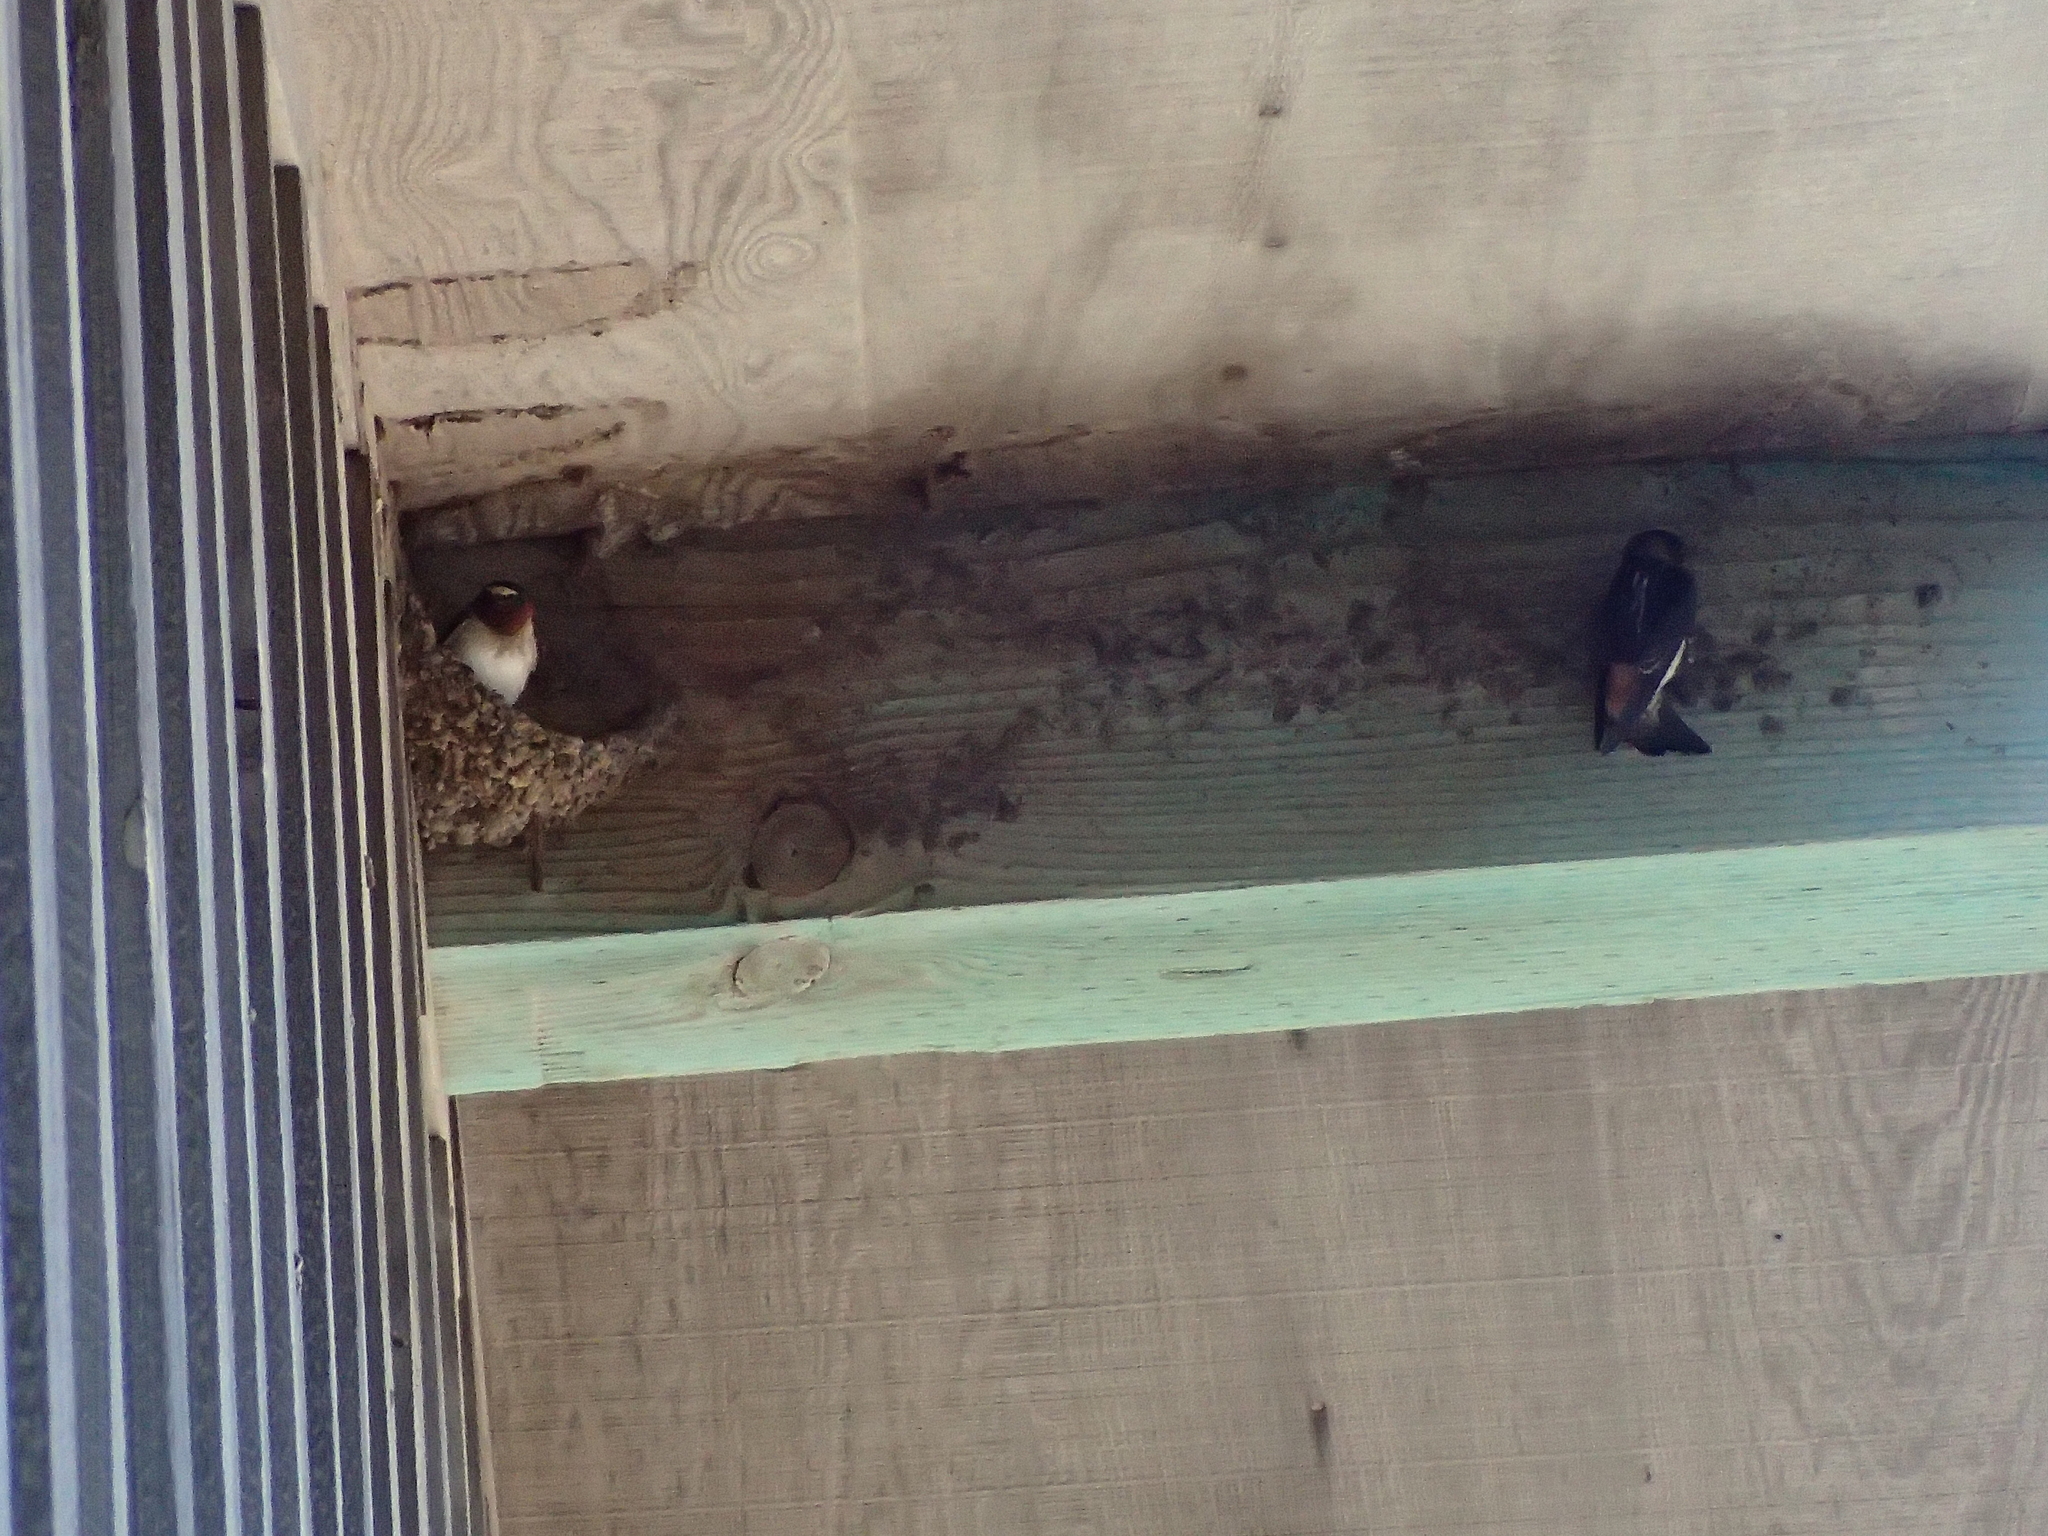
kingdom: Animalia
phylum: Chordata
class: Aves
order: Passeriformes
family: Hirundinidae
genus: Petrochelidon
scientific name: Petrochelidon pyrrhonota
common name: American cliff swallow
